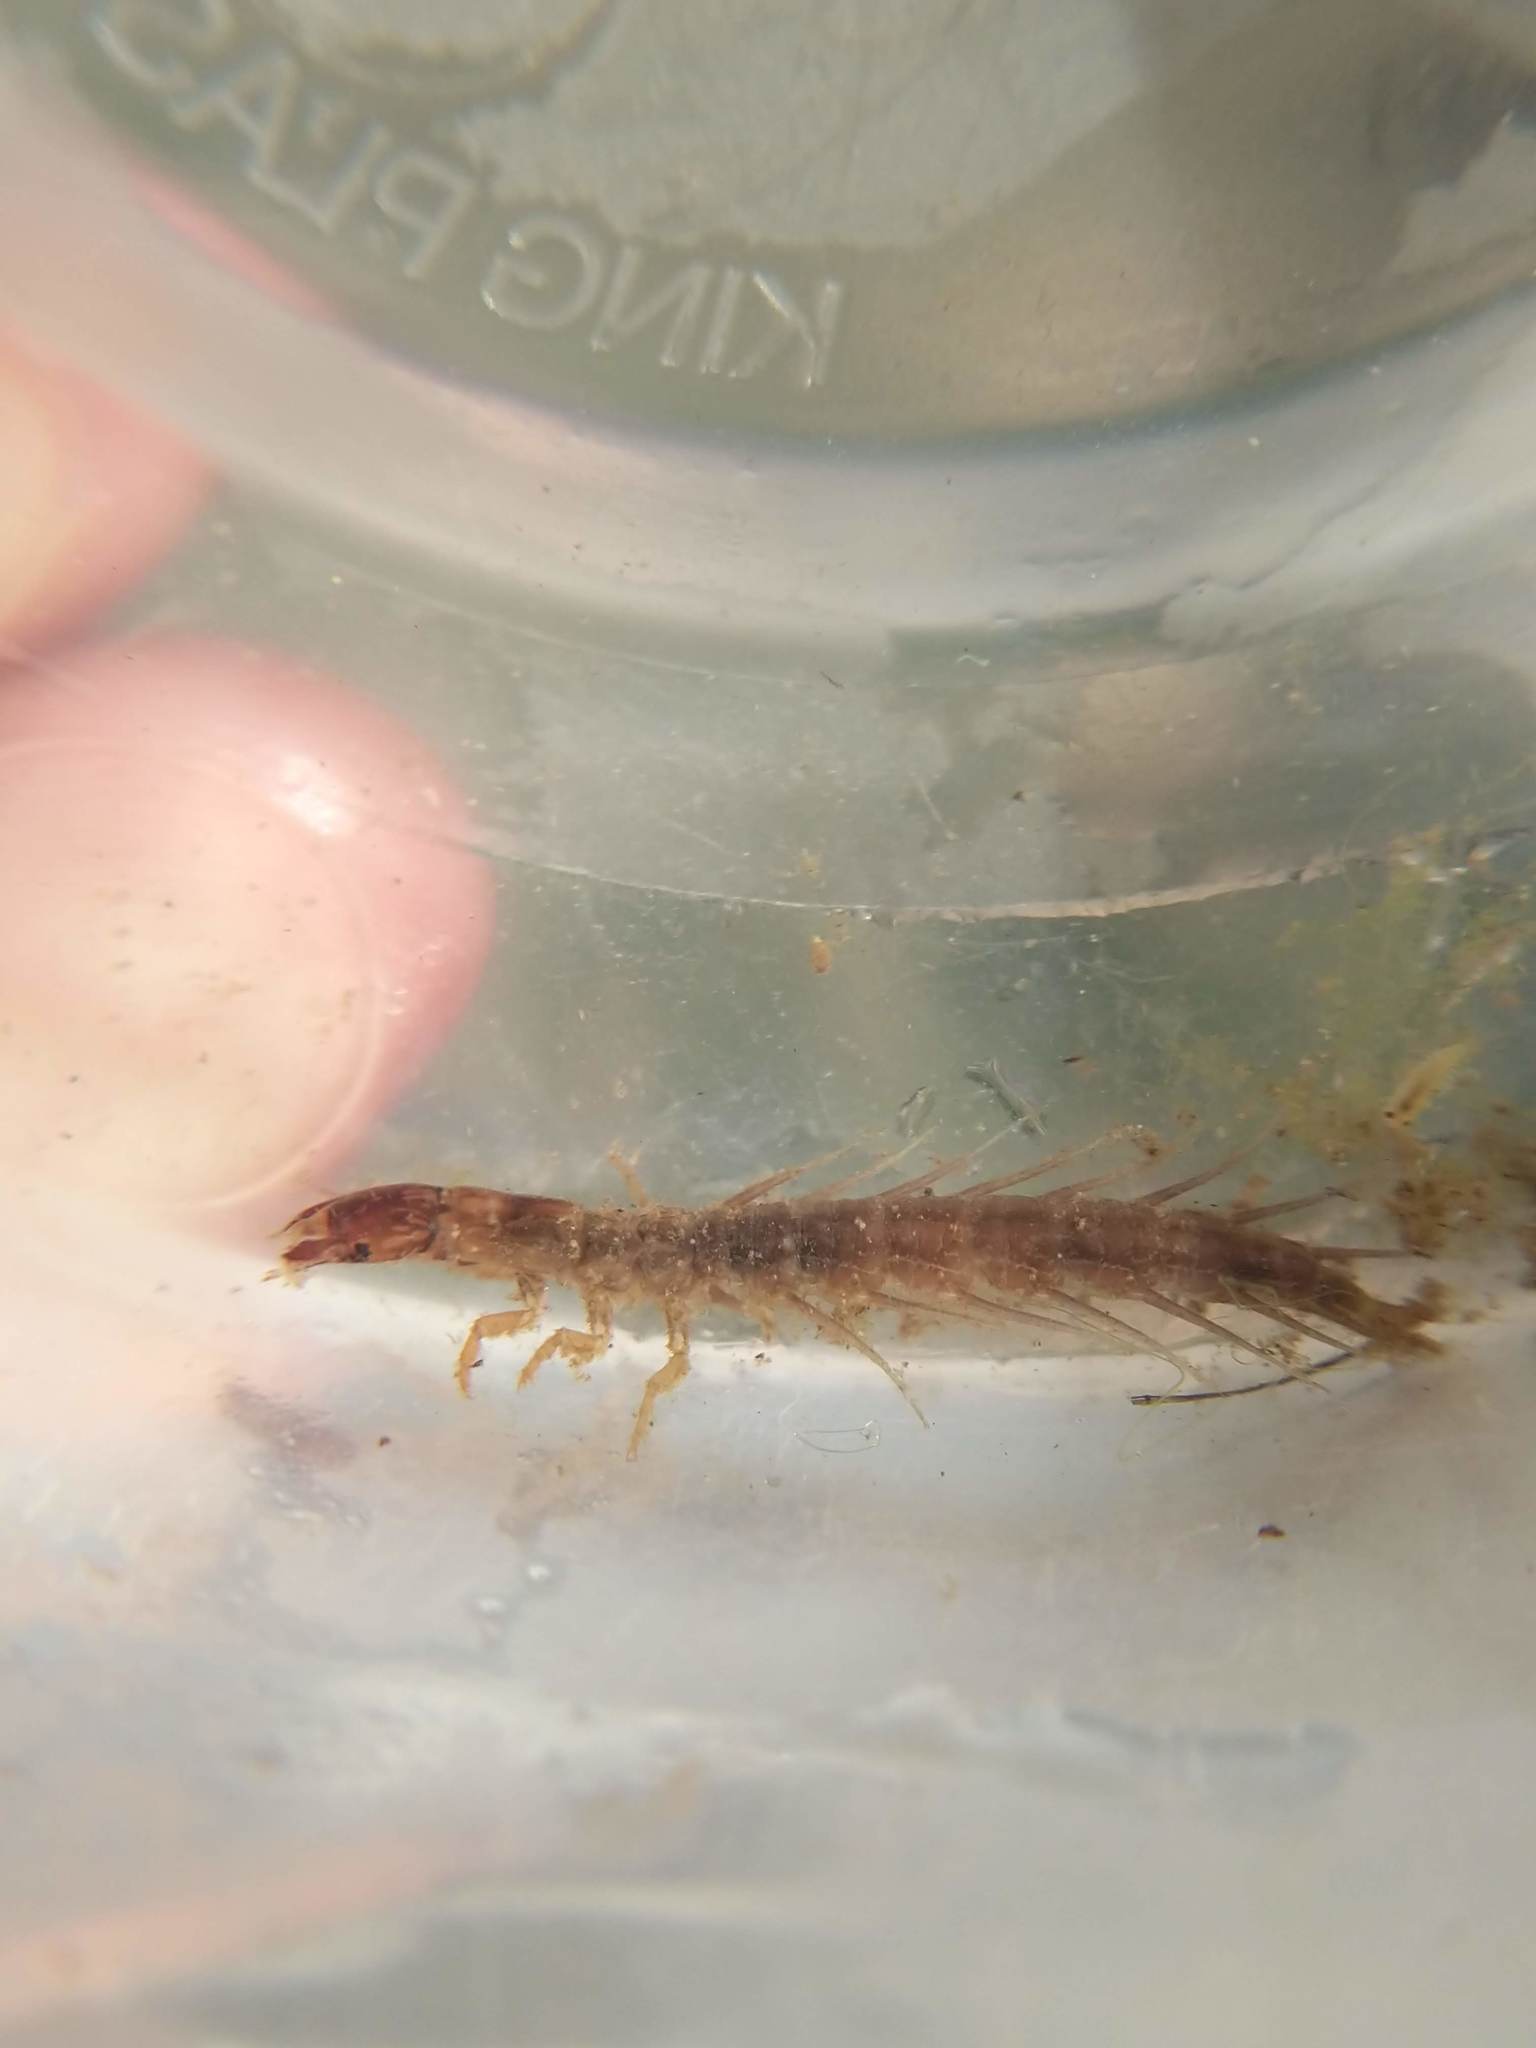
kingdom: Animalia
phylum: Arthropoda
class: Insecta
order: Megaloptera
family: Corydalidae
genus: Neohermes
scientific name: Neohermes filicornis
